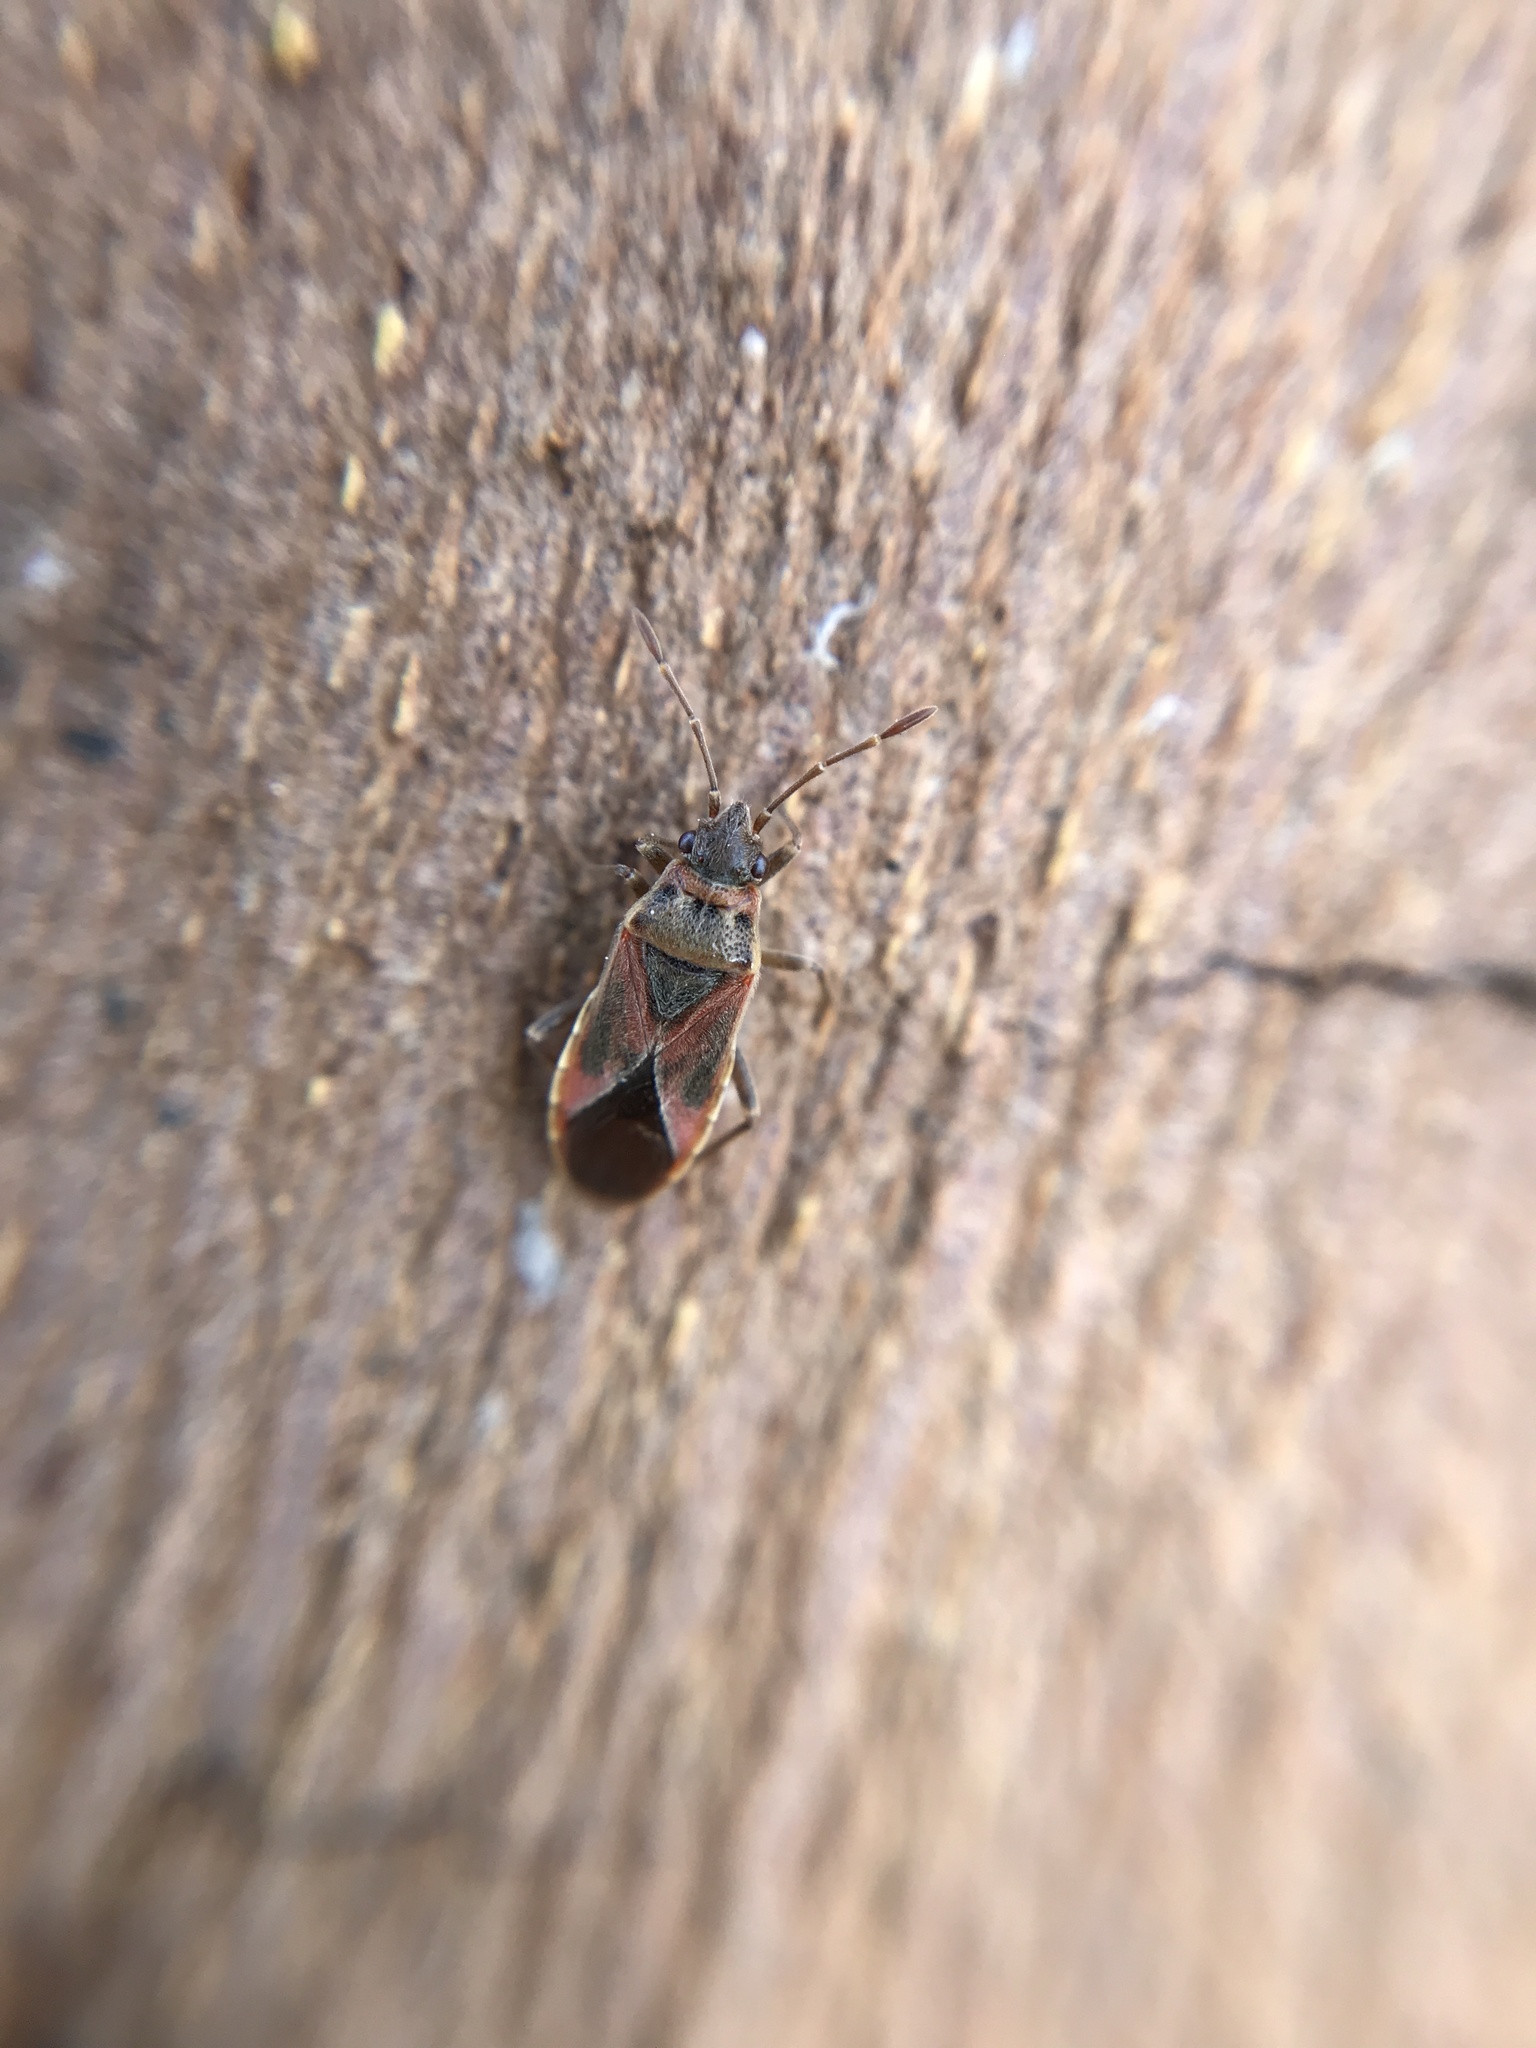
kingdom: Animalia
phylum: Arthropoda
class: Insecta
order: Hemiptera
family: Lygaeidae
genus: Arocatus
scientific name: Arocatus roeselii
